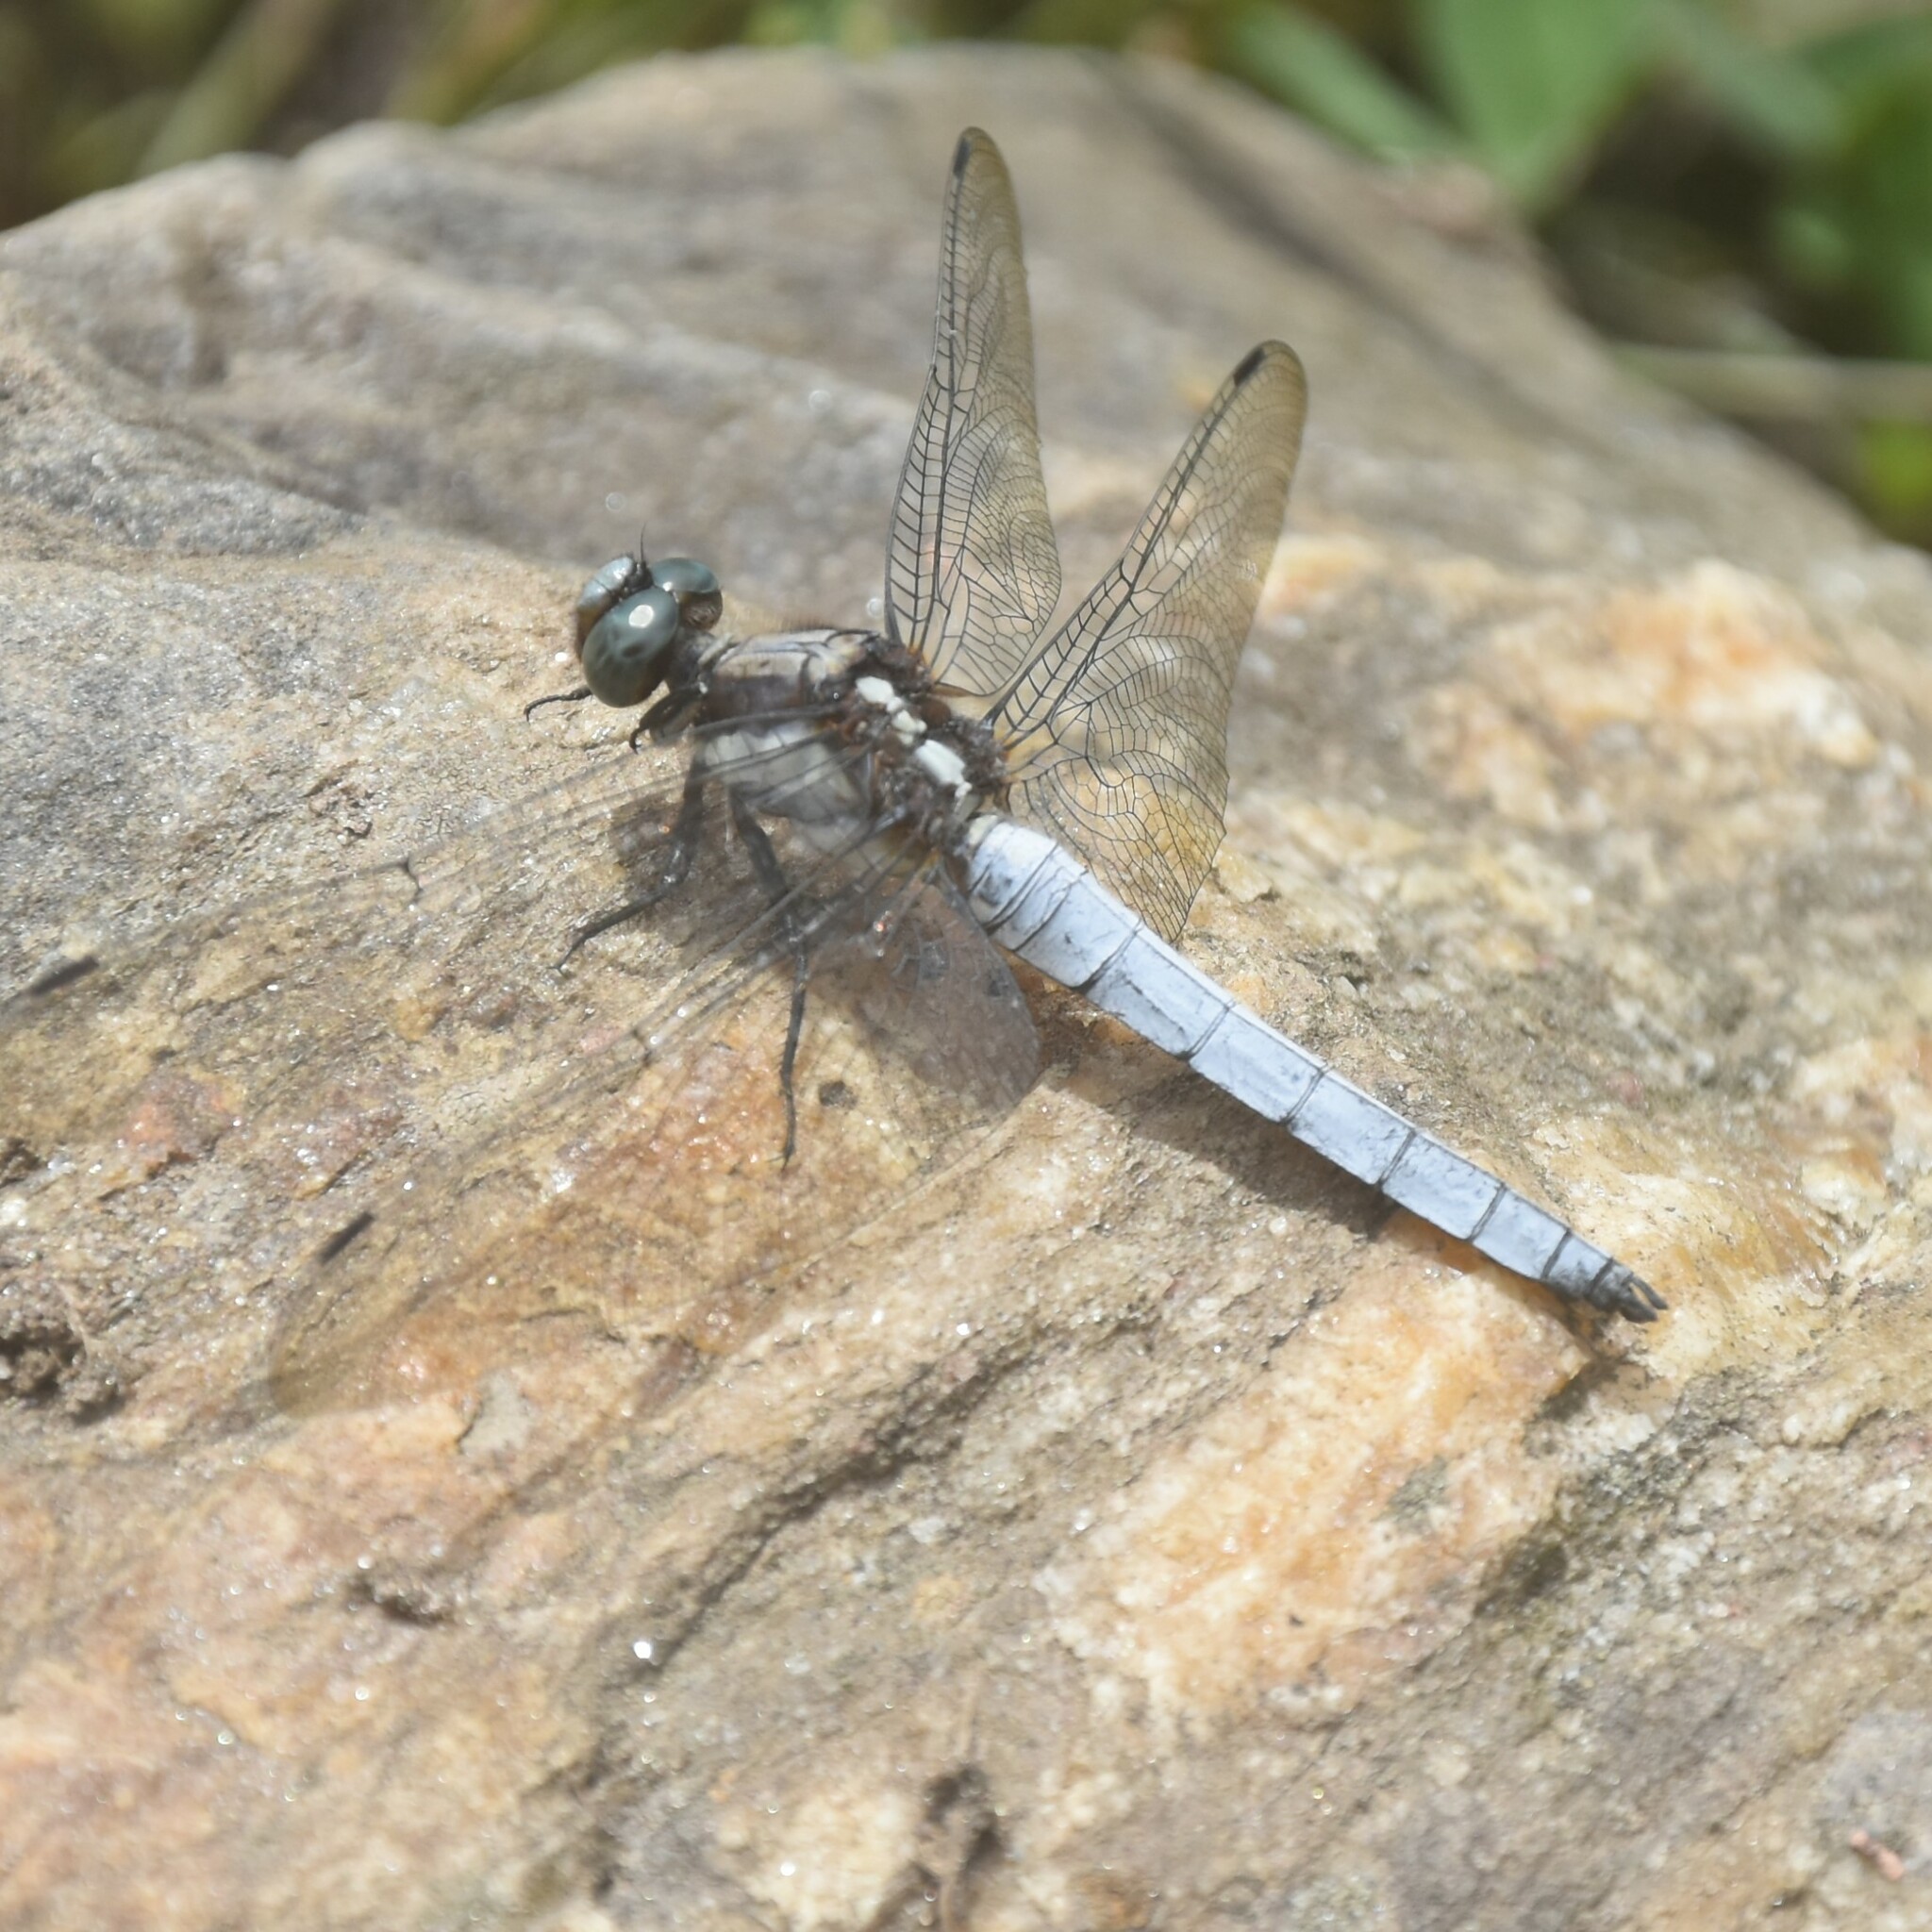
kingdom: Animalia
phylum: Arthropoda
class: Insecta
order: Odonata
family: Libellulidae
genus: Orthetrum
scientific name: Orthetrum internum
